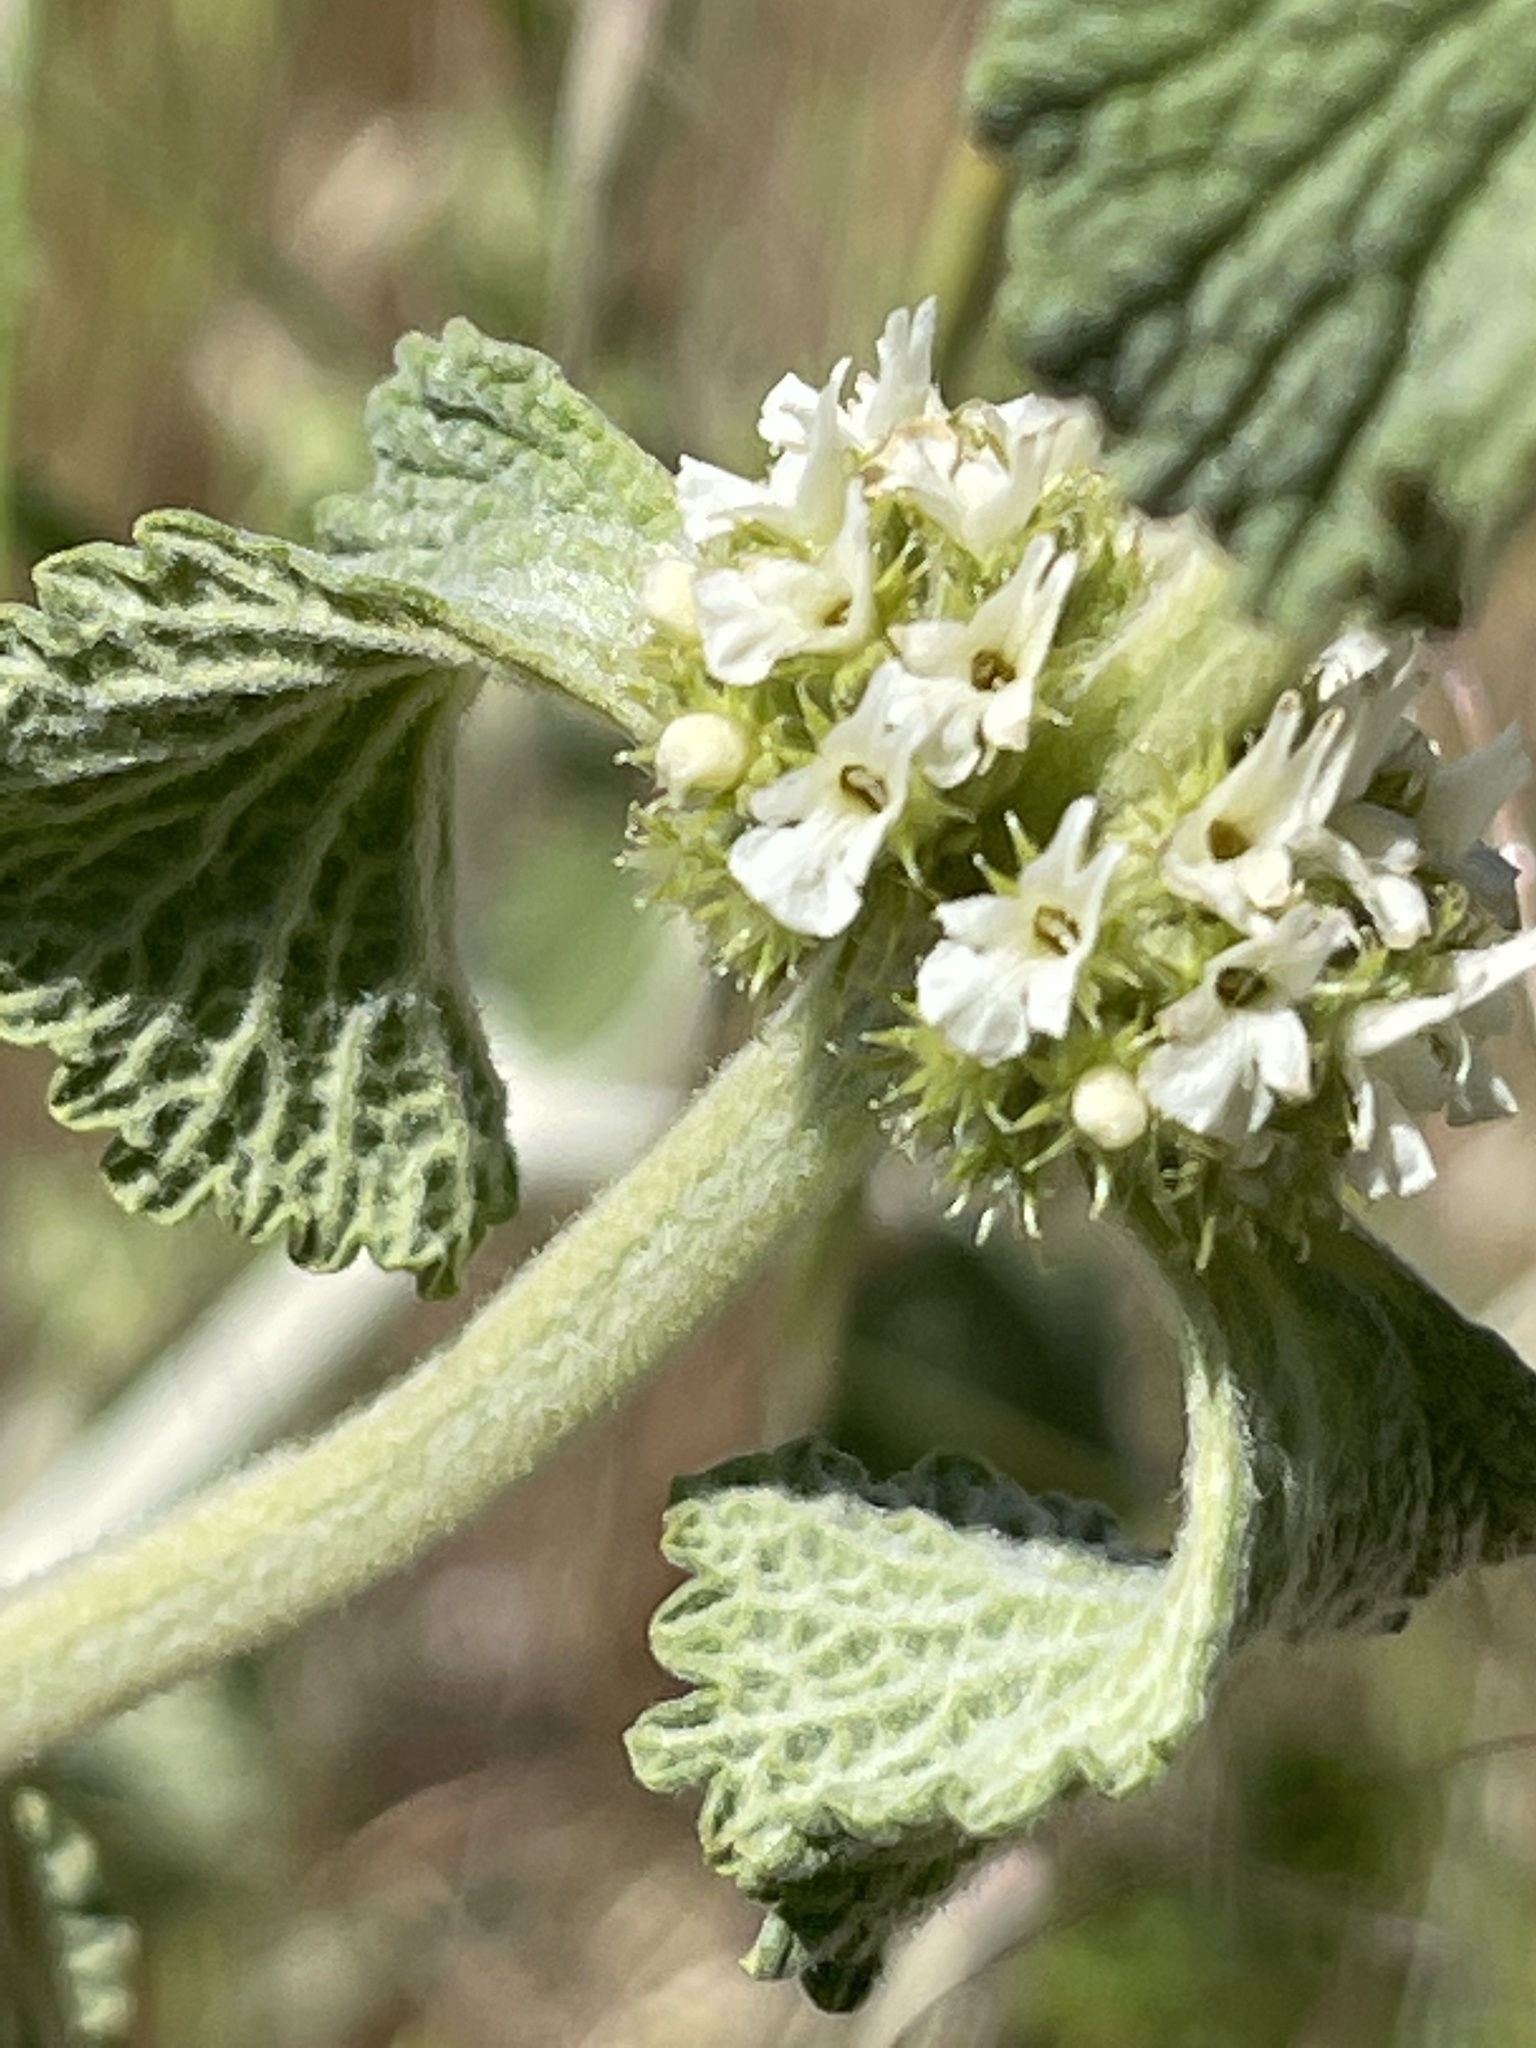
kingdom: Plantae
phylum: Tracheophyta
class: Magnoliopsida
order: Lamiales
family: Lamiaceae
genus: Marrubium
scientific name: Marrubium vulgare
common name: Horehound
